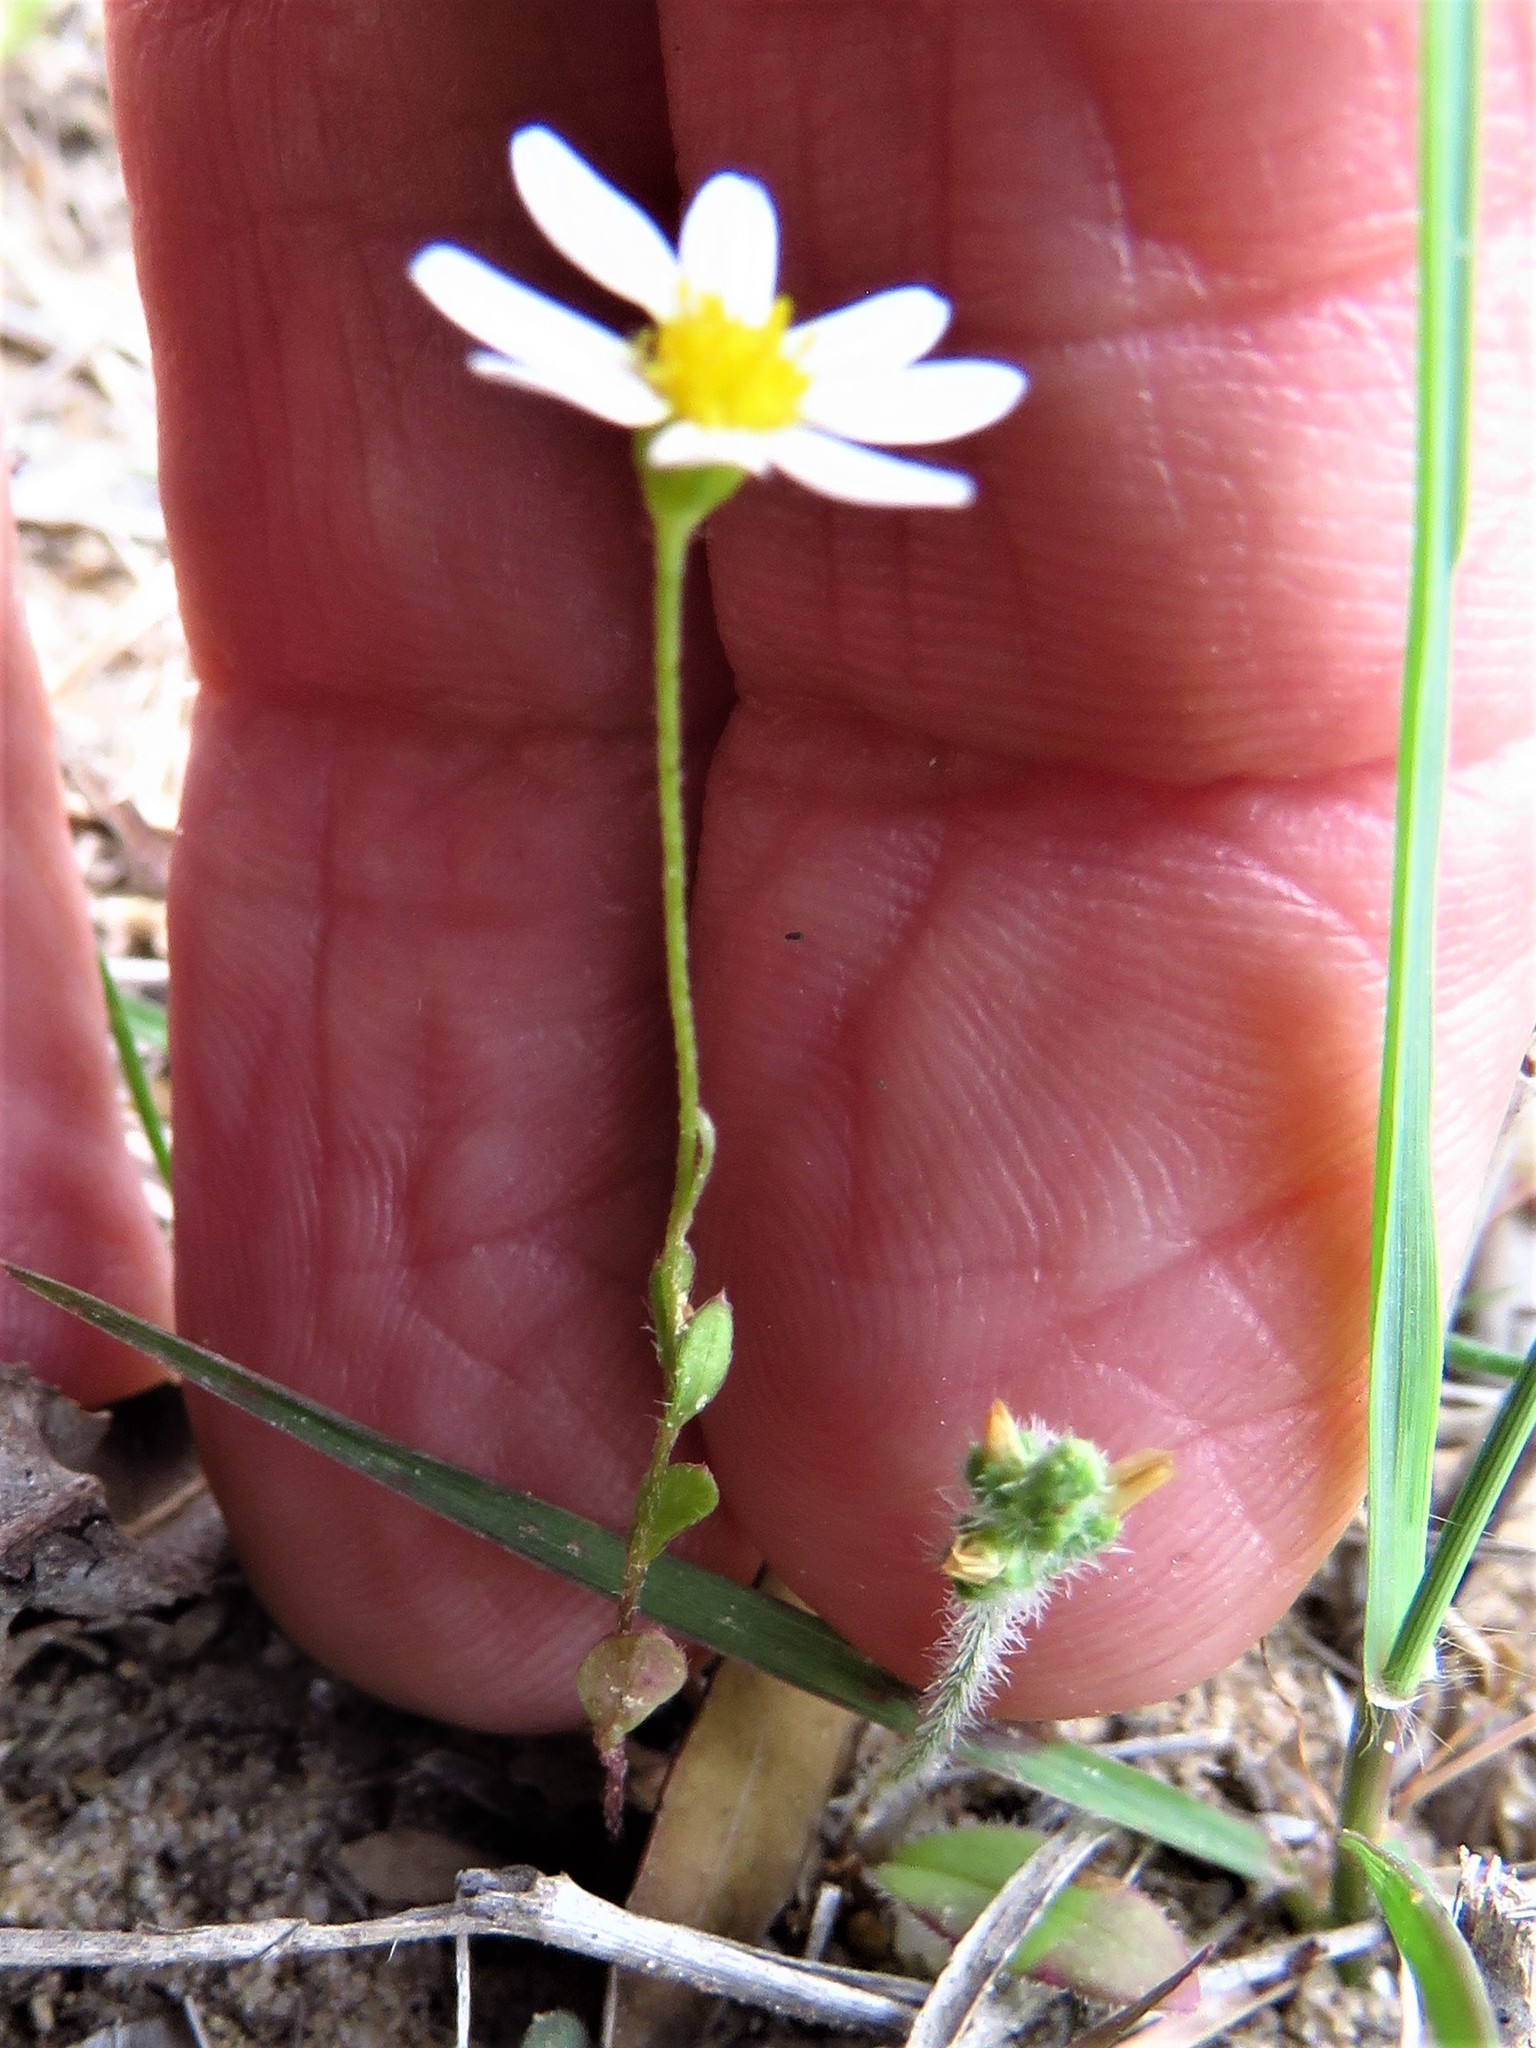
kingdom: Plantae
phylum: Tracheophyta
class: Magnoliopsida
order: Asterales
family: Asteraceae
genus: Chaetopappa
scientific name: Chaetopappa asteroides
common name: Tiny lazy daisy
